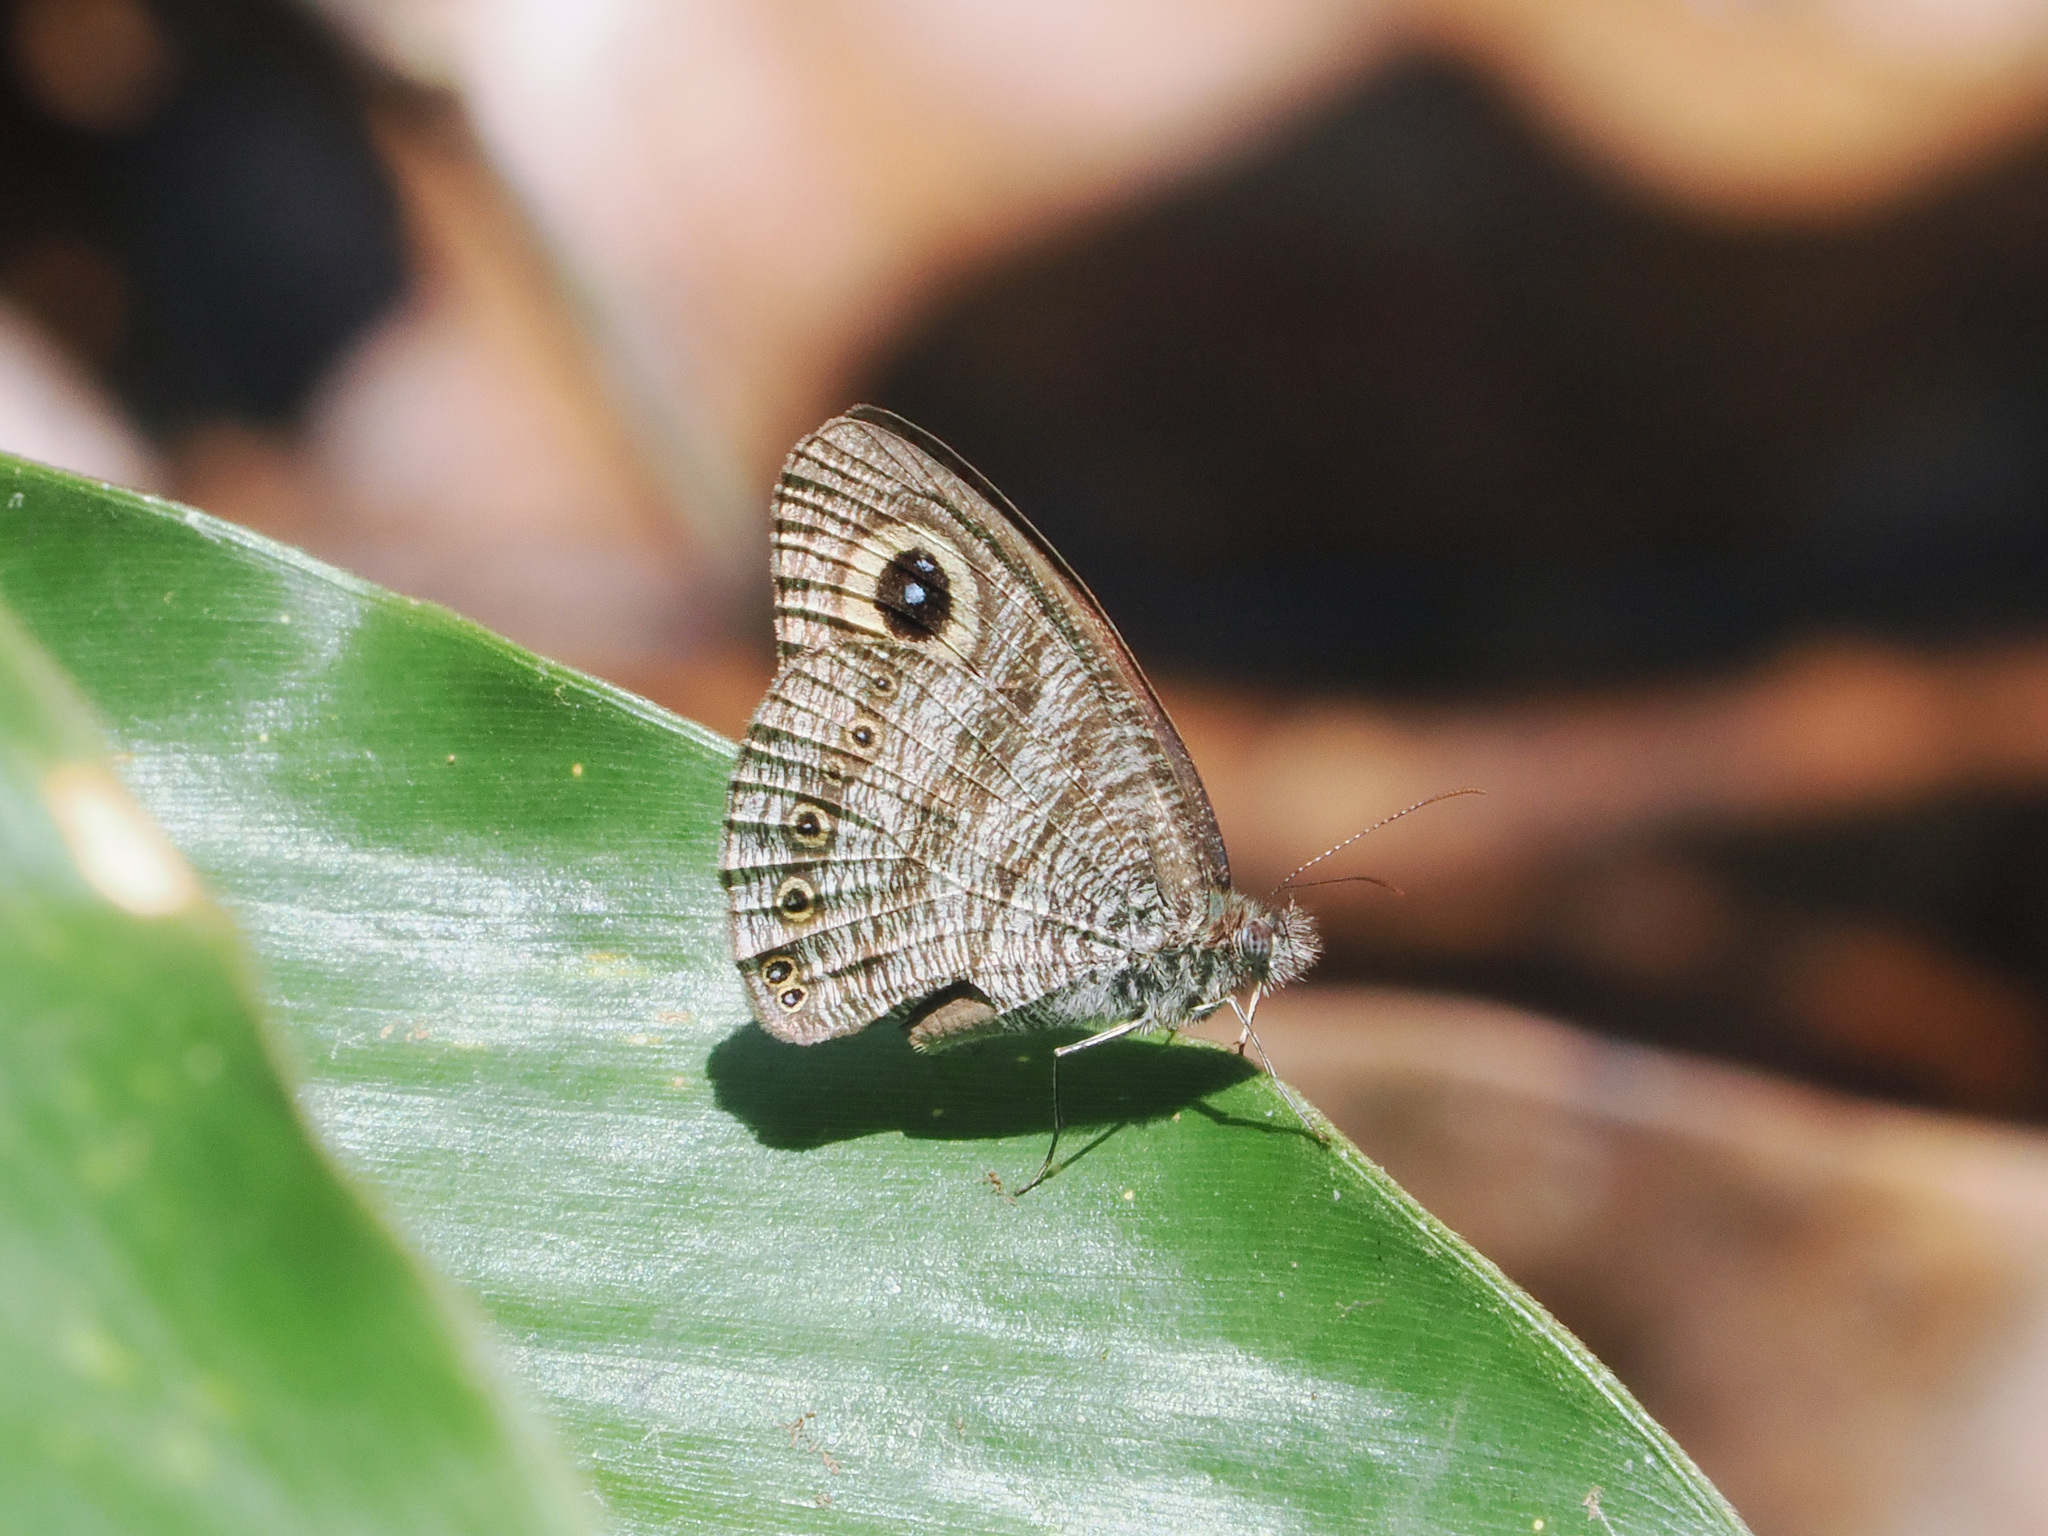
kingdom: Animalia
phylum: Arthropoda
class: Insecta
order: Lepidoptera
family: Nymphalidae
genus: Ypthima
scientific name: Ypthima fasciata
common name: Malayan six-ring
